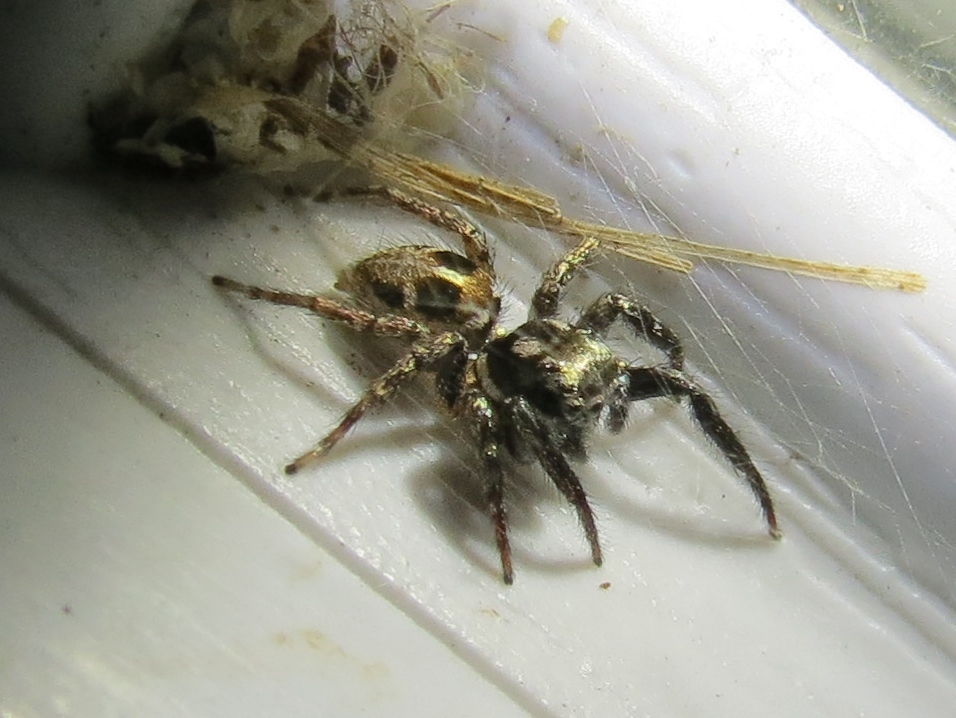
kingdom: Animalia
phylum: Arthropoda
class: Arachnida
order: Araneae
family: Salticidae
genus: Anasaitis
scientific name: Anasaitis canosa
